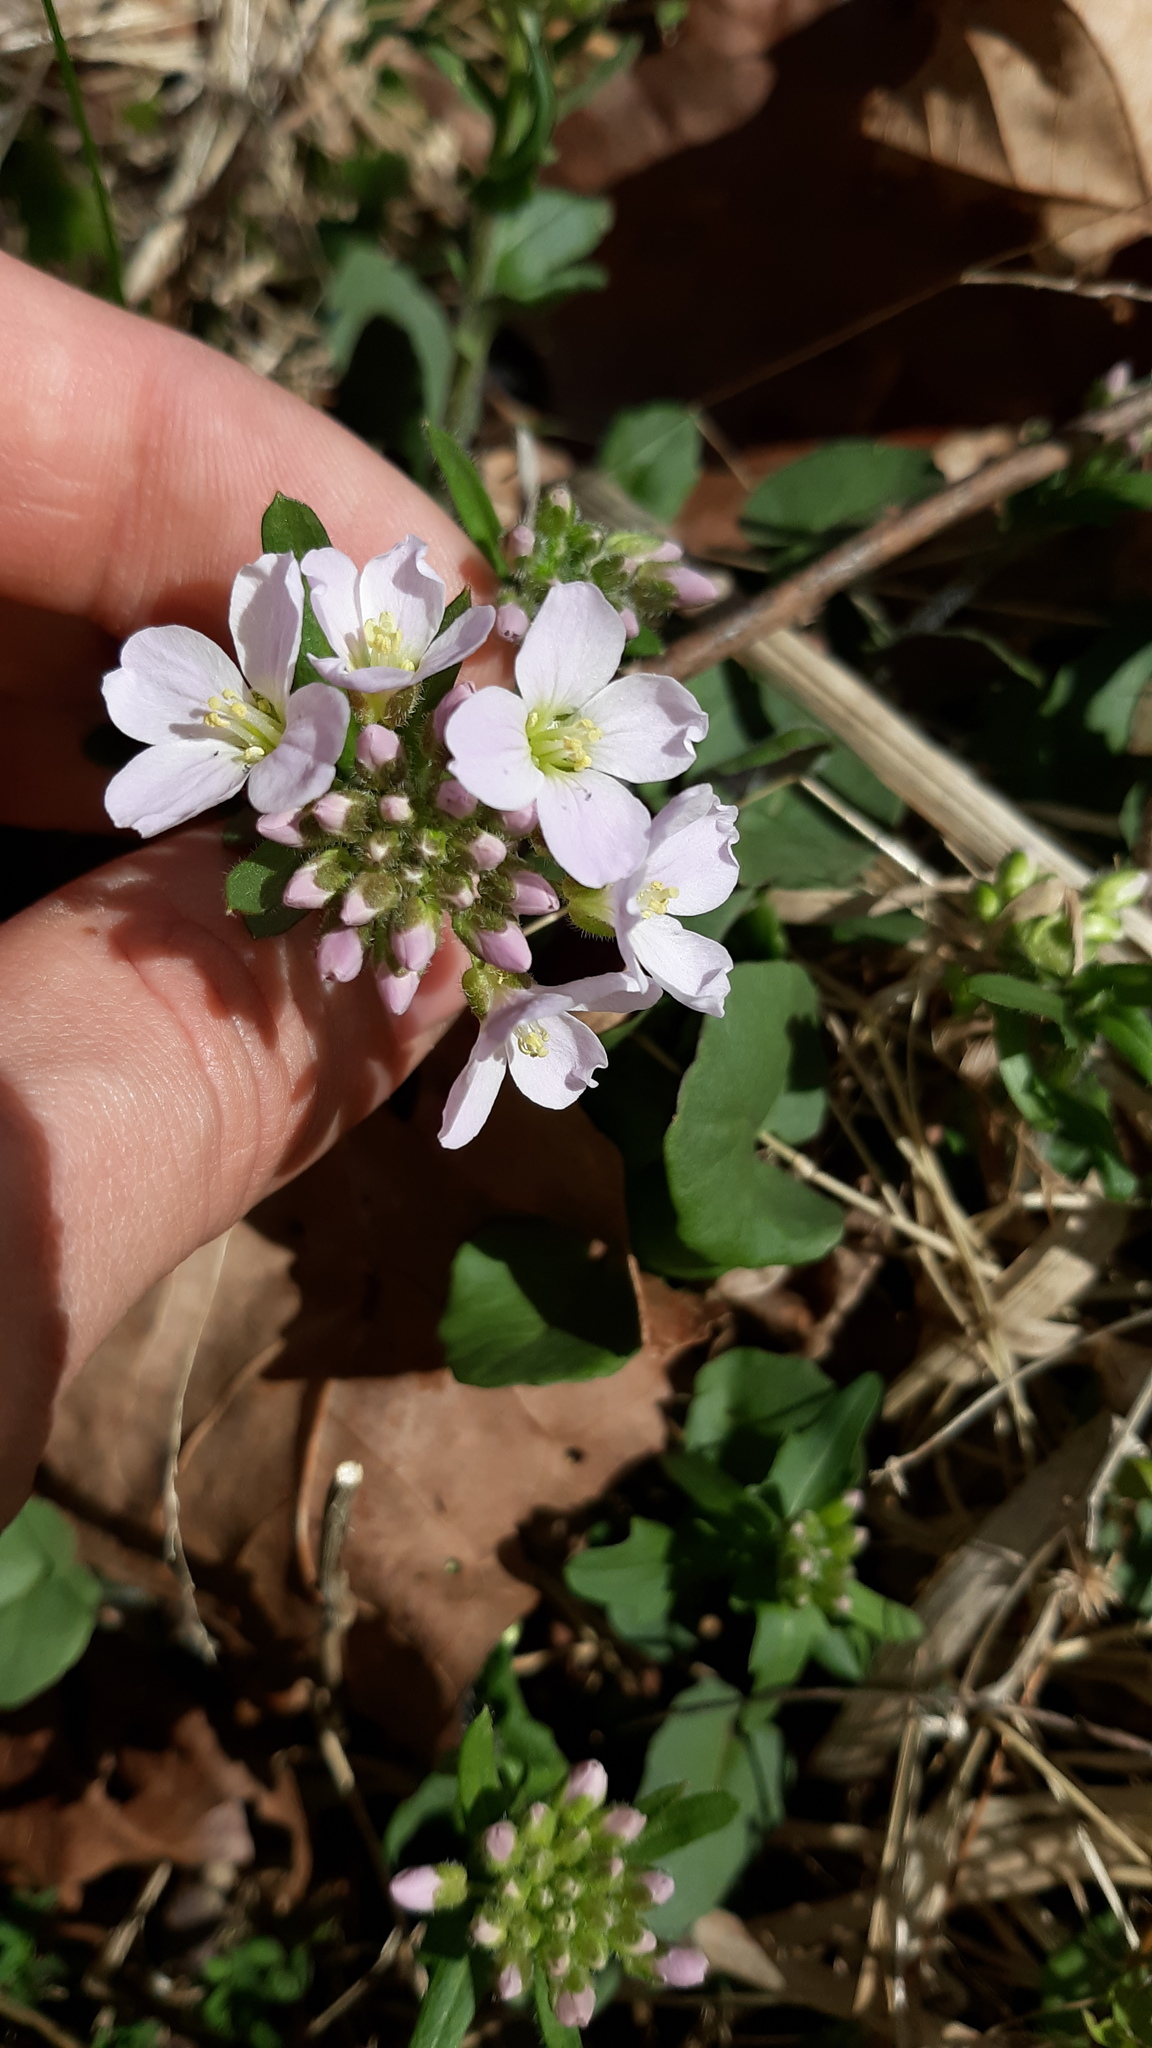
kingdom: Plantae
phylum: Tracheophyta
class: Magnoliopsida
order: Brassicales
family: Brassicaceae
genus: Cardamine
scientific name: Cardamine douglassii
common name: Purple cress
